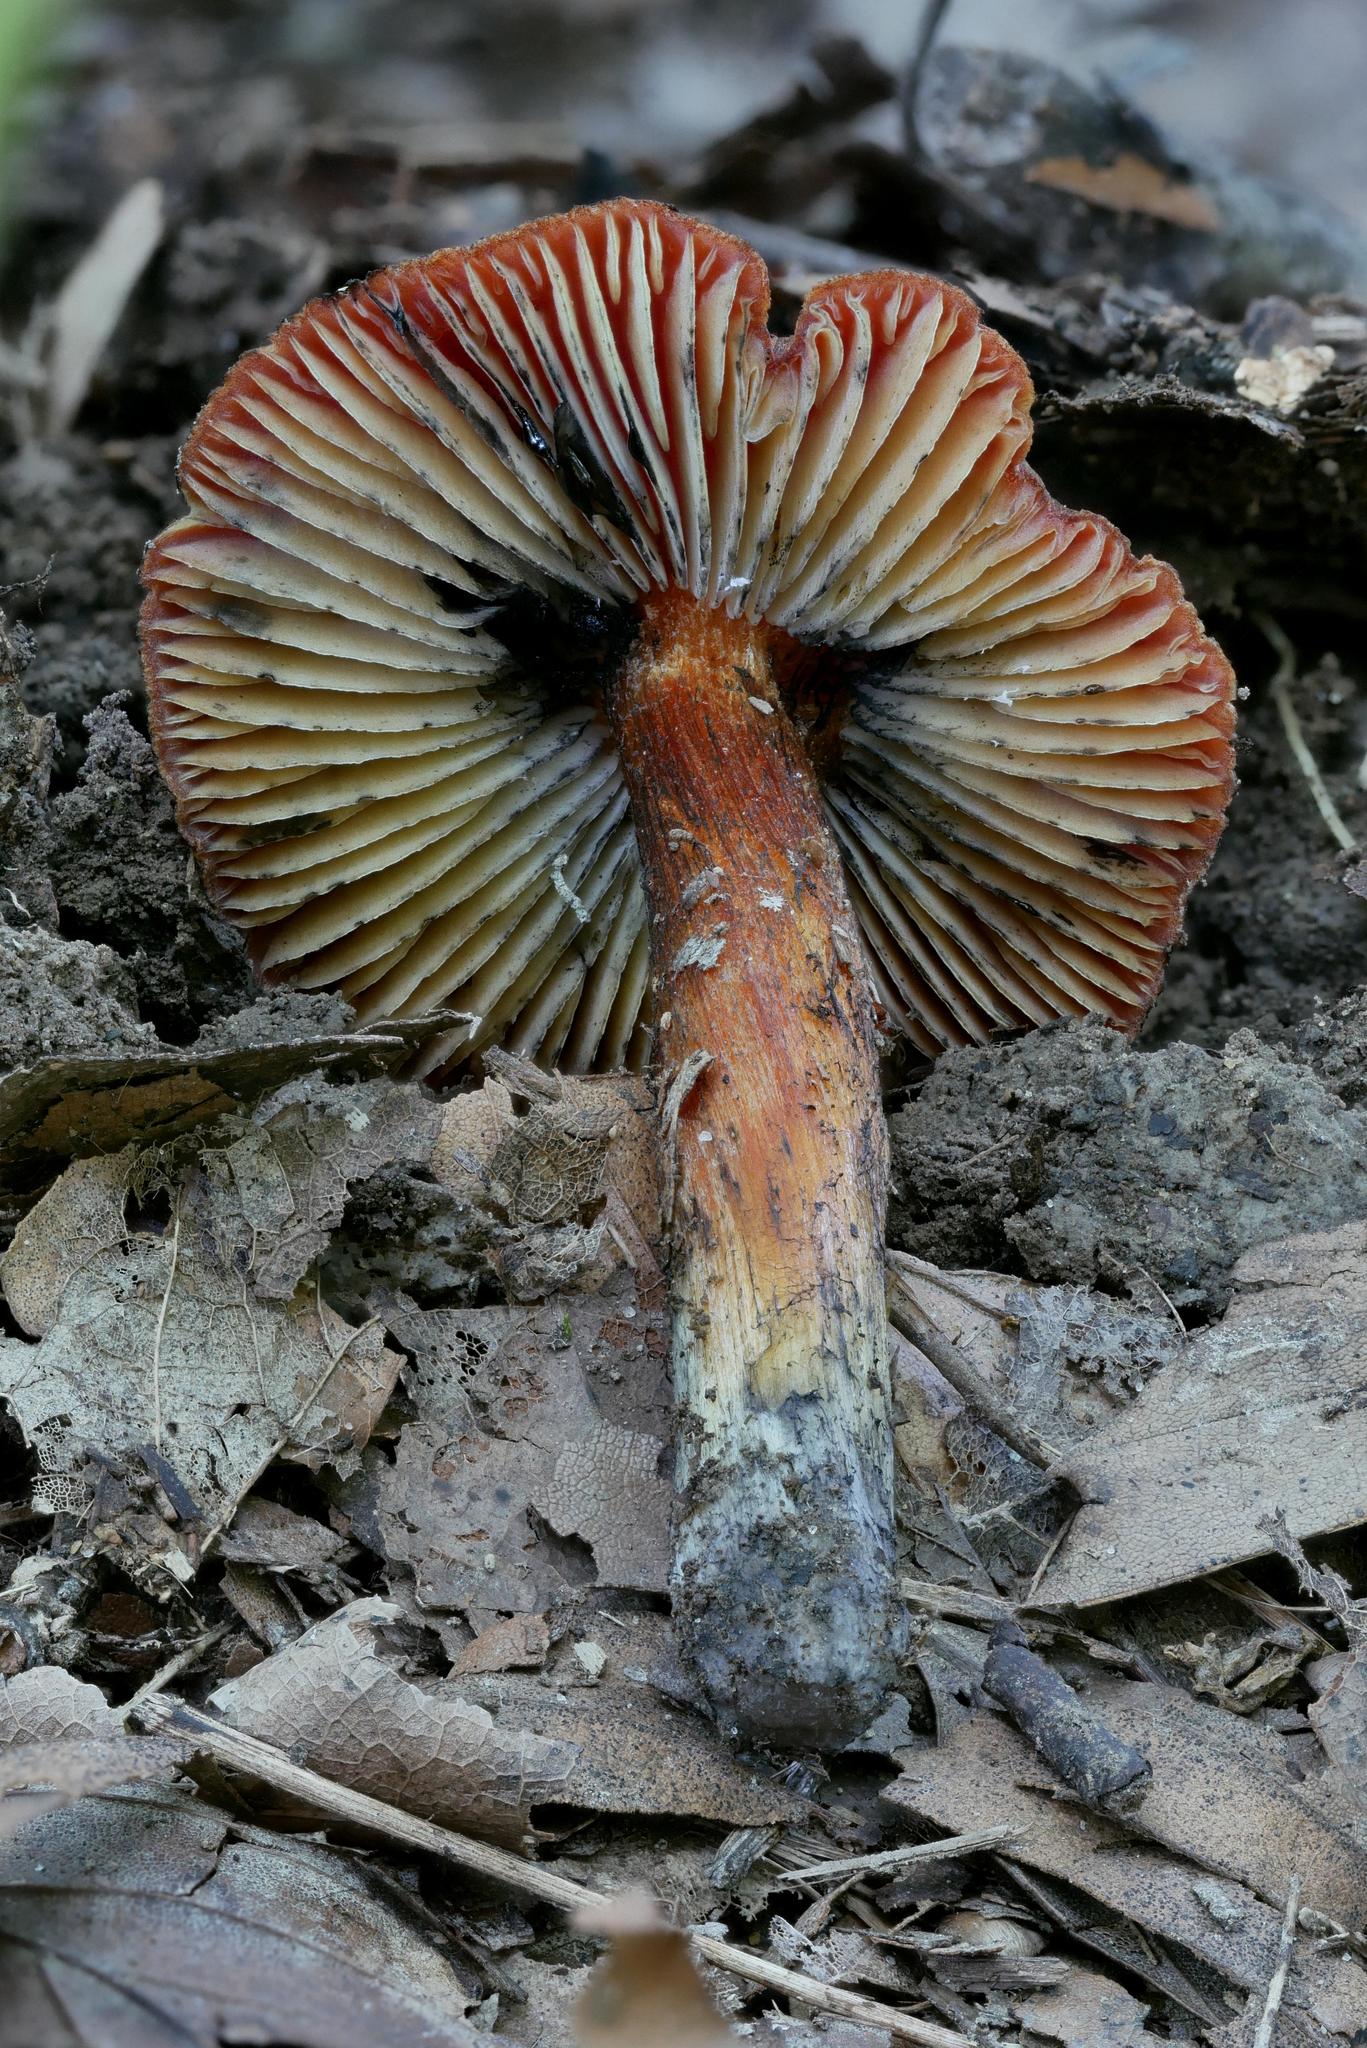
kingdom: Fungi
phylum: Basidiomycota
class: Agaricomycetes
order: Agaricales
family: Hygrophoraceae
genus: Hygrocybe
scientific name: Hygrocybe conica
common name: Blackening wax-cap
